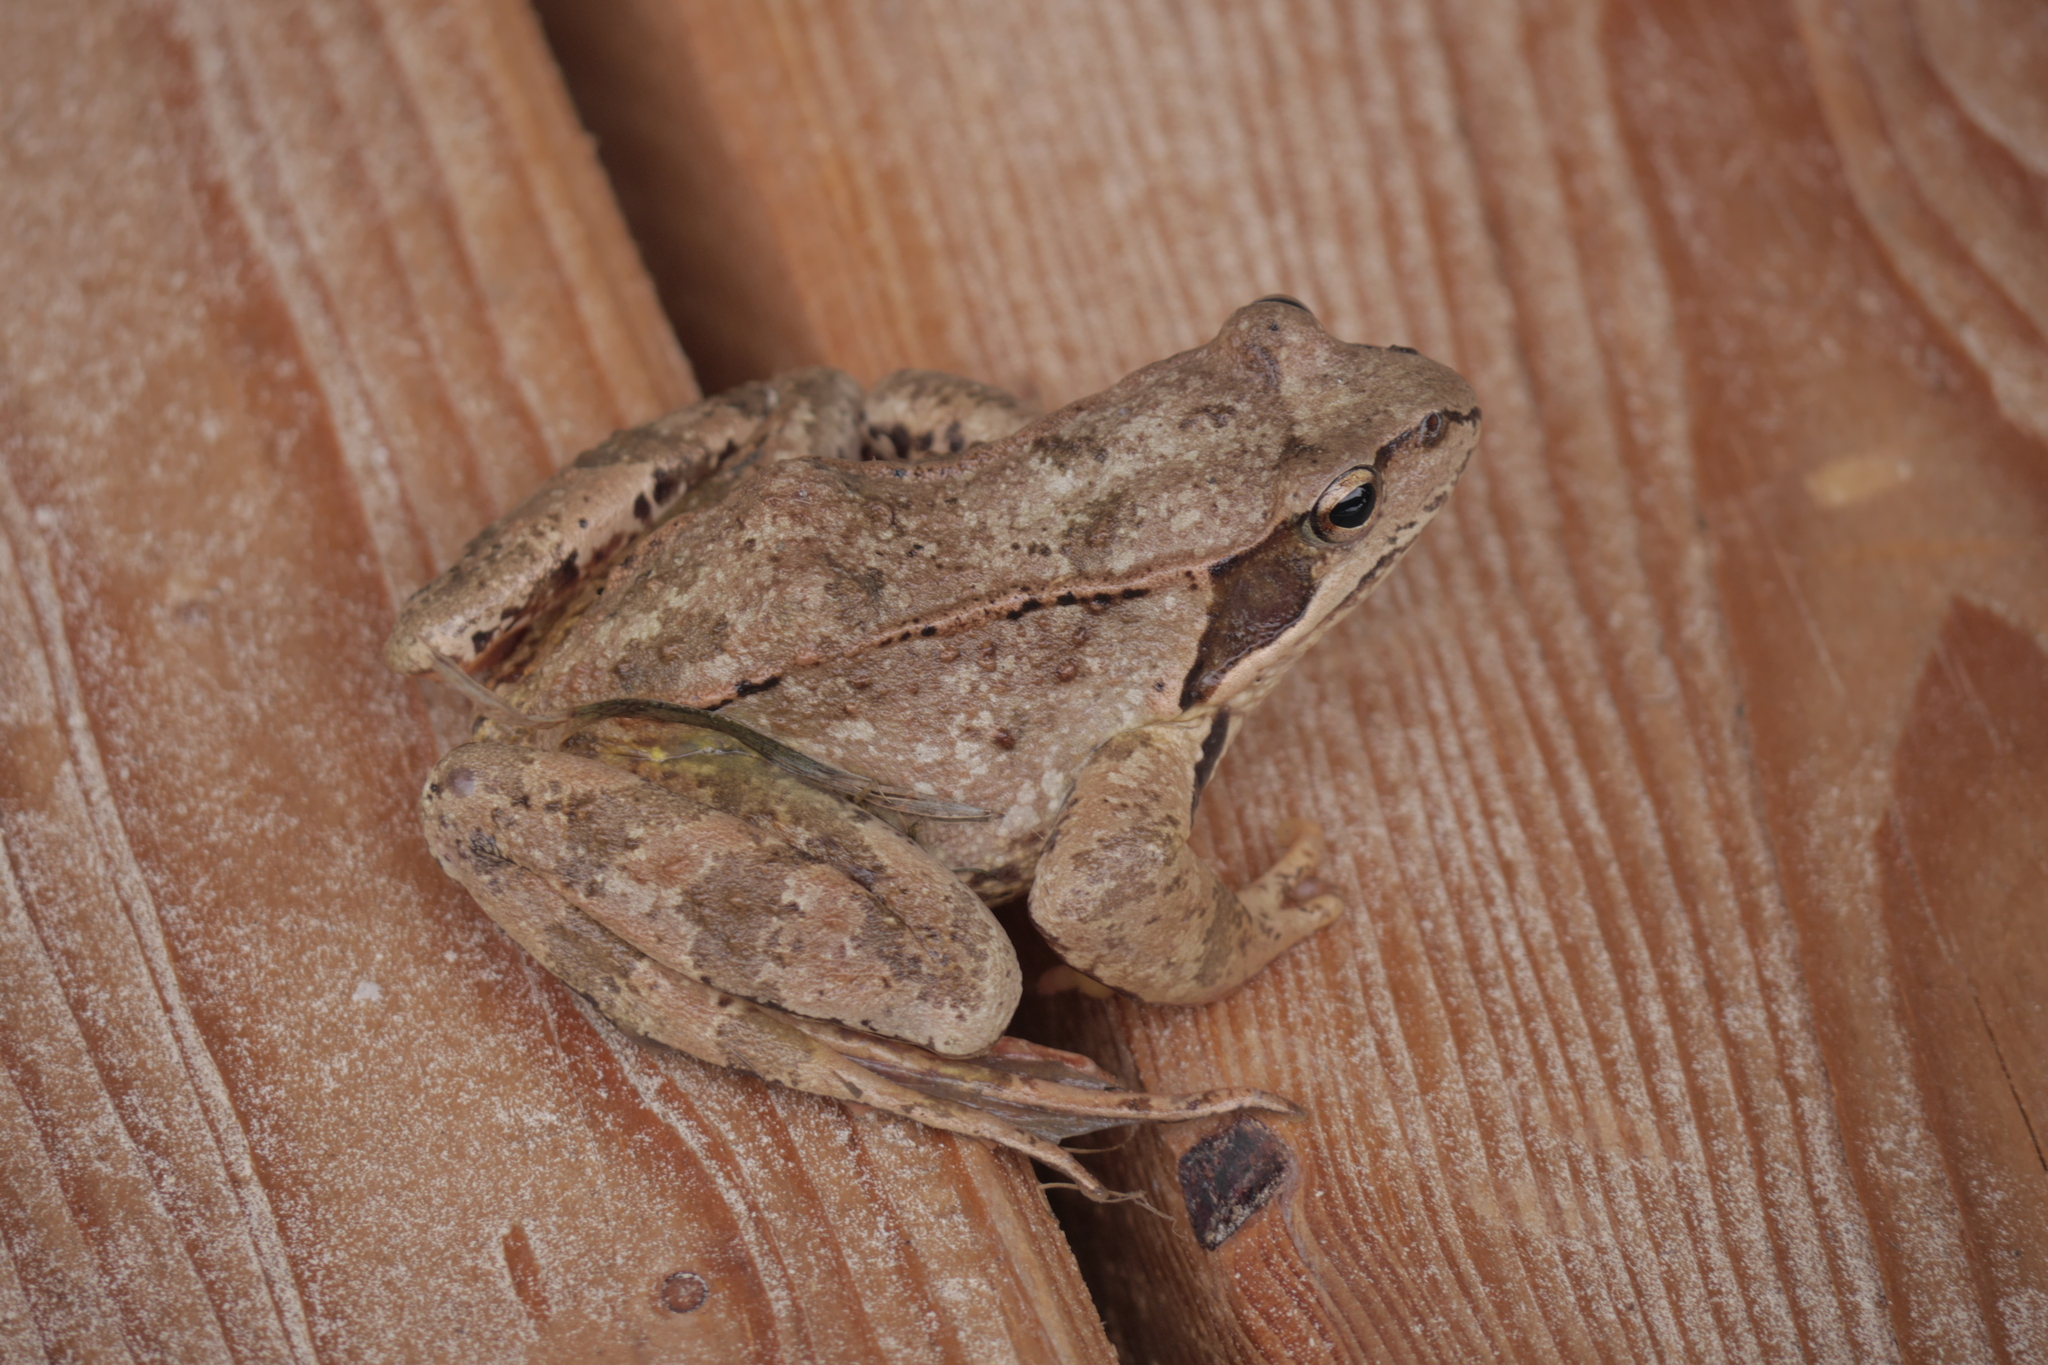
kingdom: Animalia
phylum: Chordata
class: Amphibia
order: Anura
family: Ranidae
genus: Rana
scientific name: Rana temporaria
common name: Common frog
